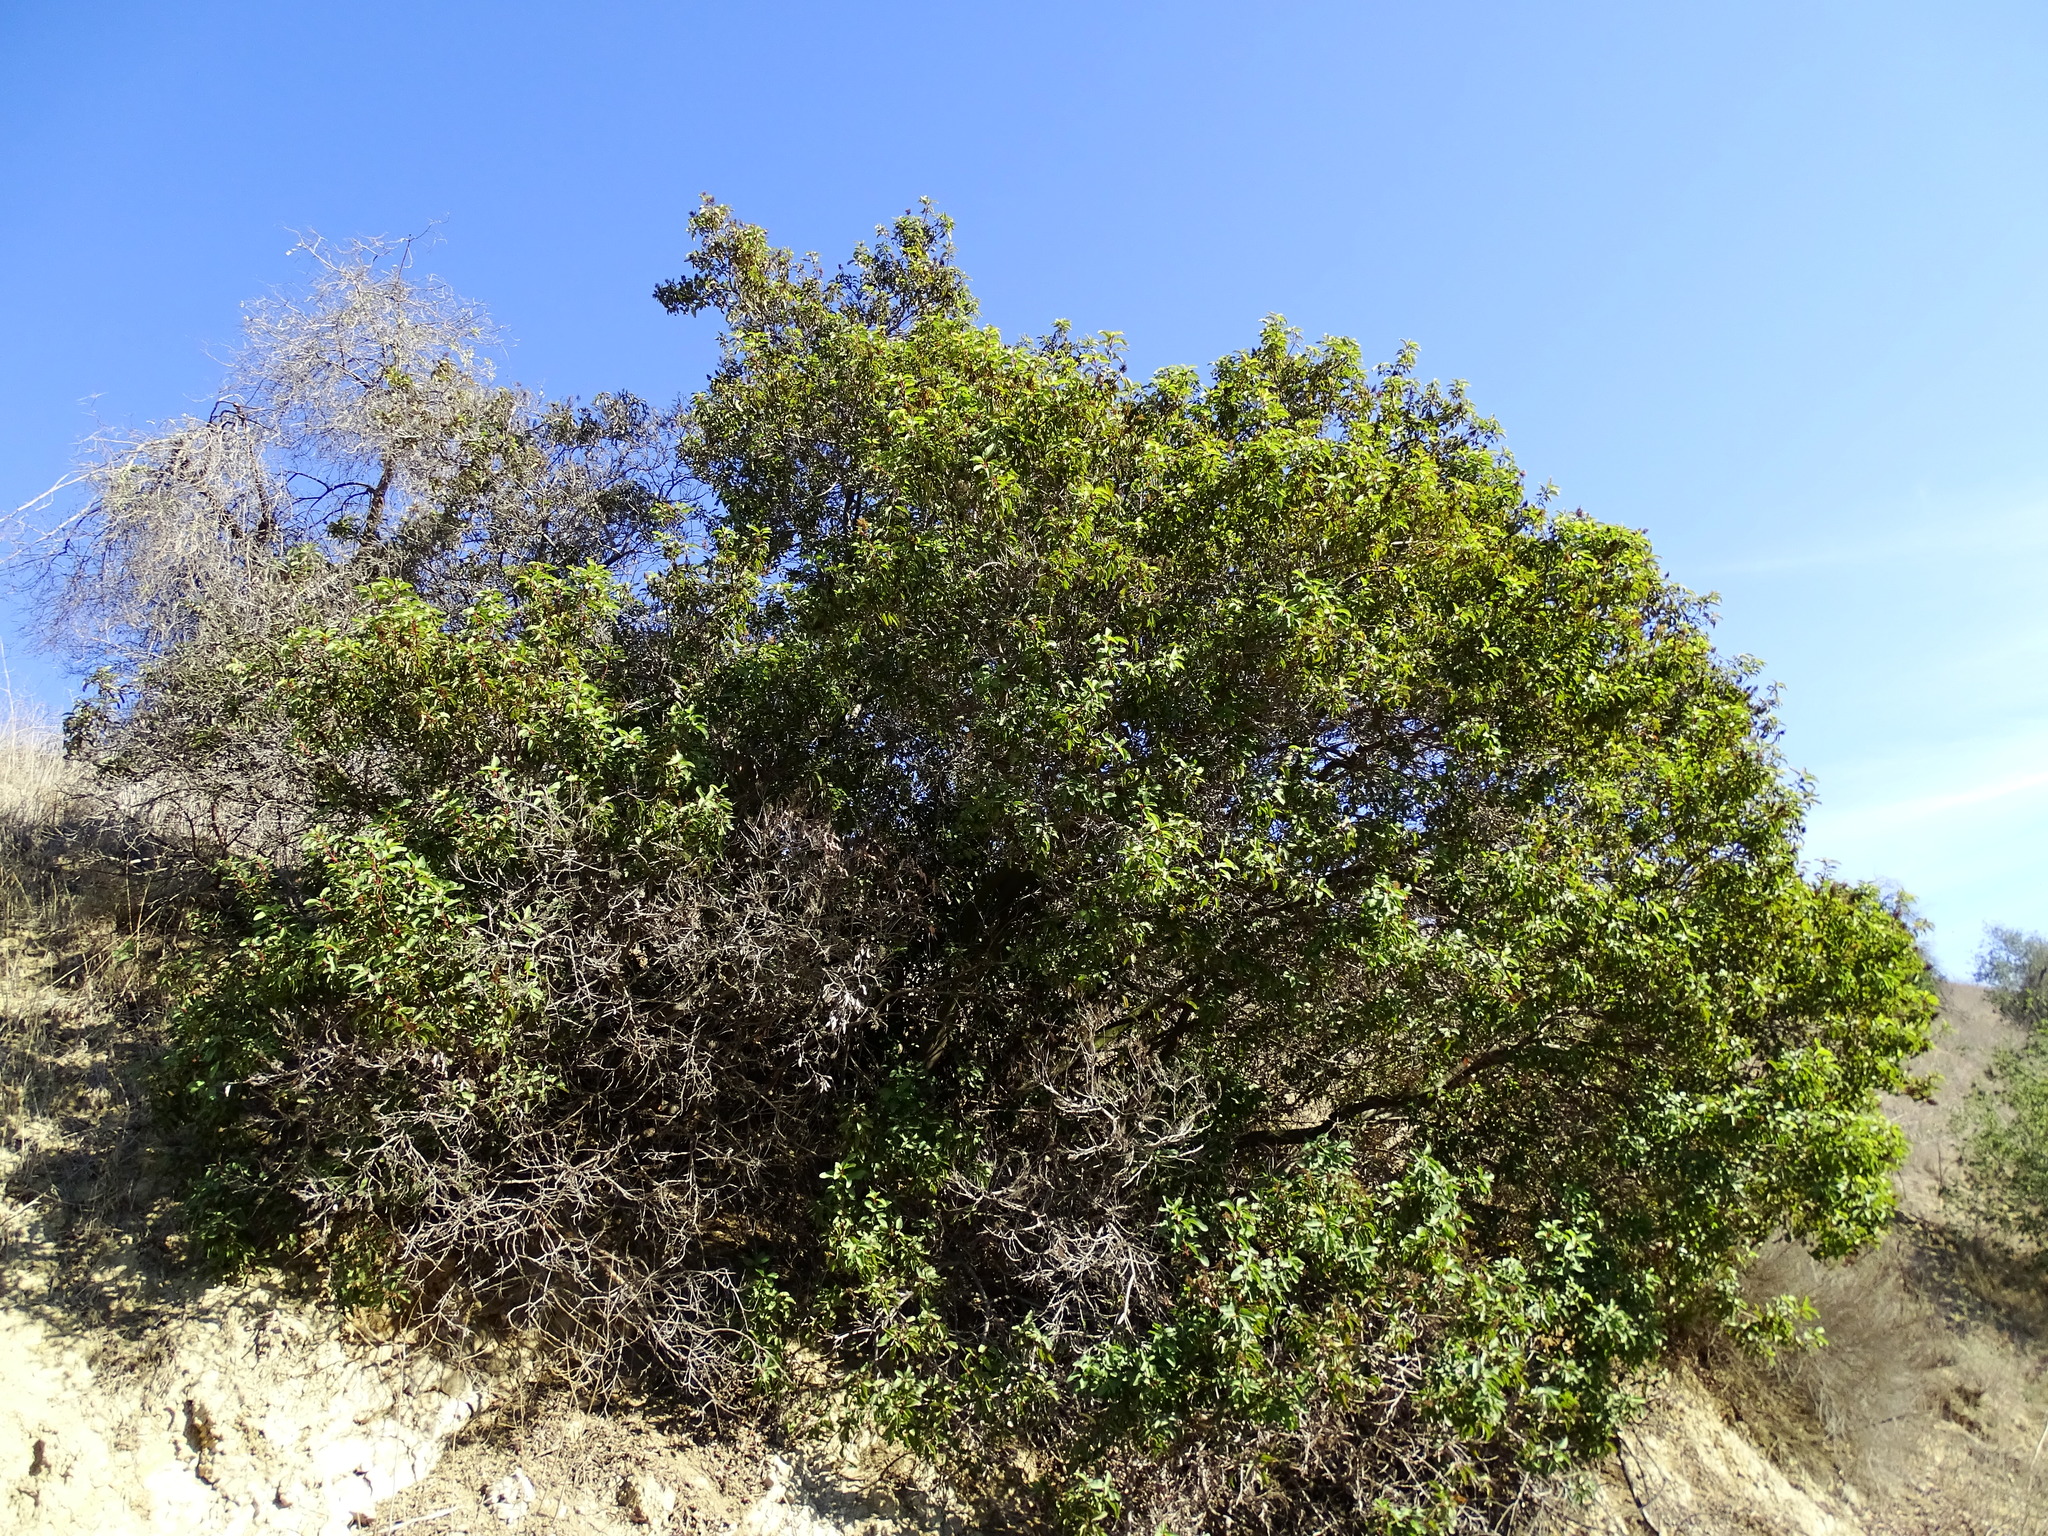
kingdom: Plantae
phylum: Tracheophyta
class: Magnoliopsida
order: Sapindales
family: Anacardiaceae
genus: Malosma
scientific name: Malosma laurina
